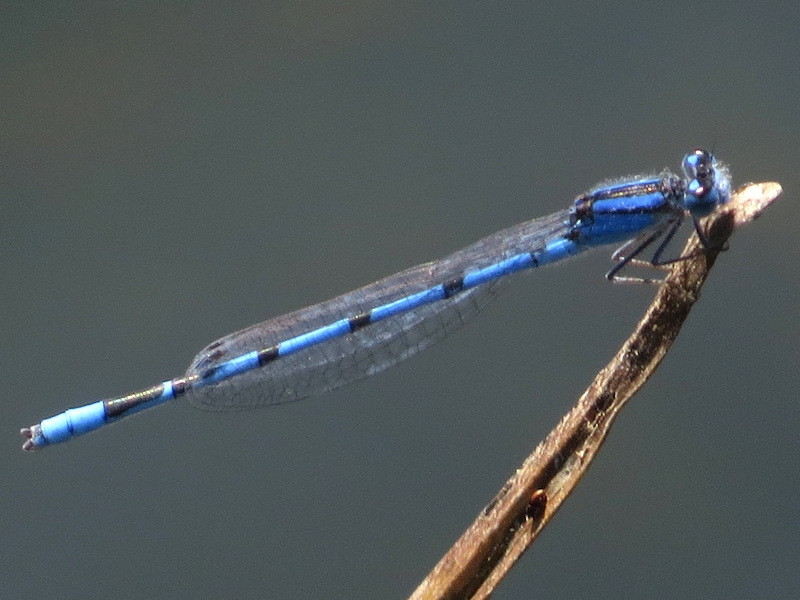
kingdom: Animalia
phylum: Arthropoda
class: Insecta
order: Odonata
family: Coenagrionidae
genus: Enallagma
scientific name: Enallagma civile
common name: Damselfly
